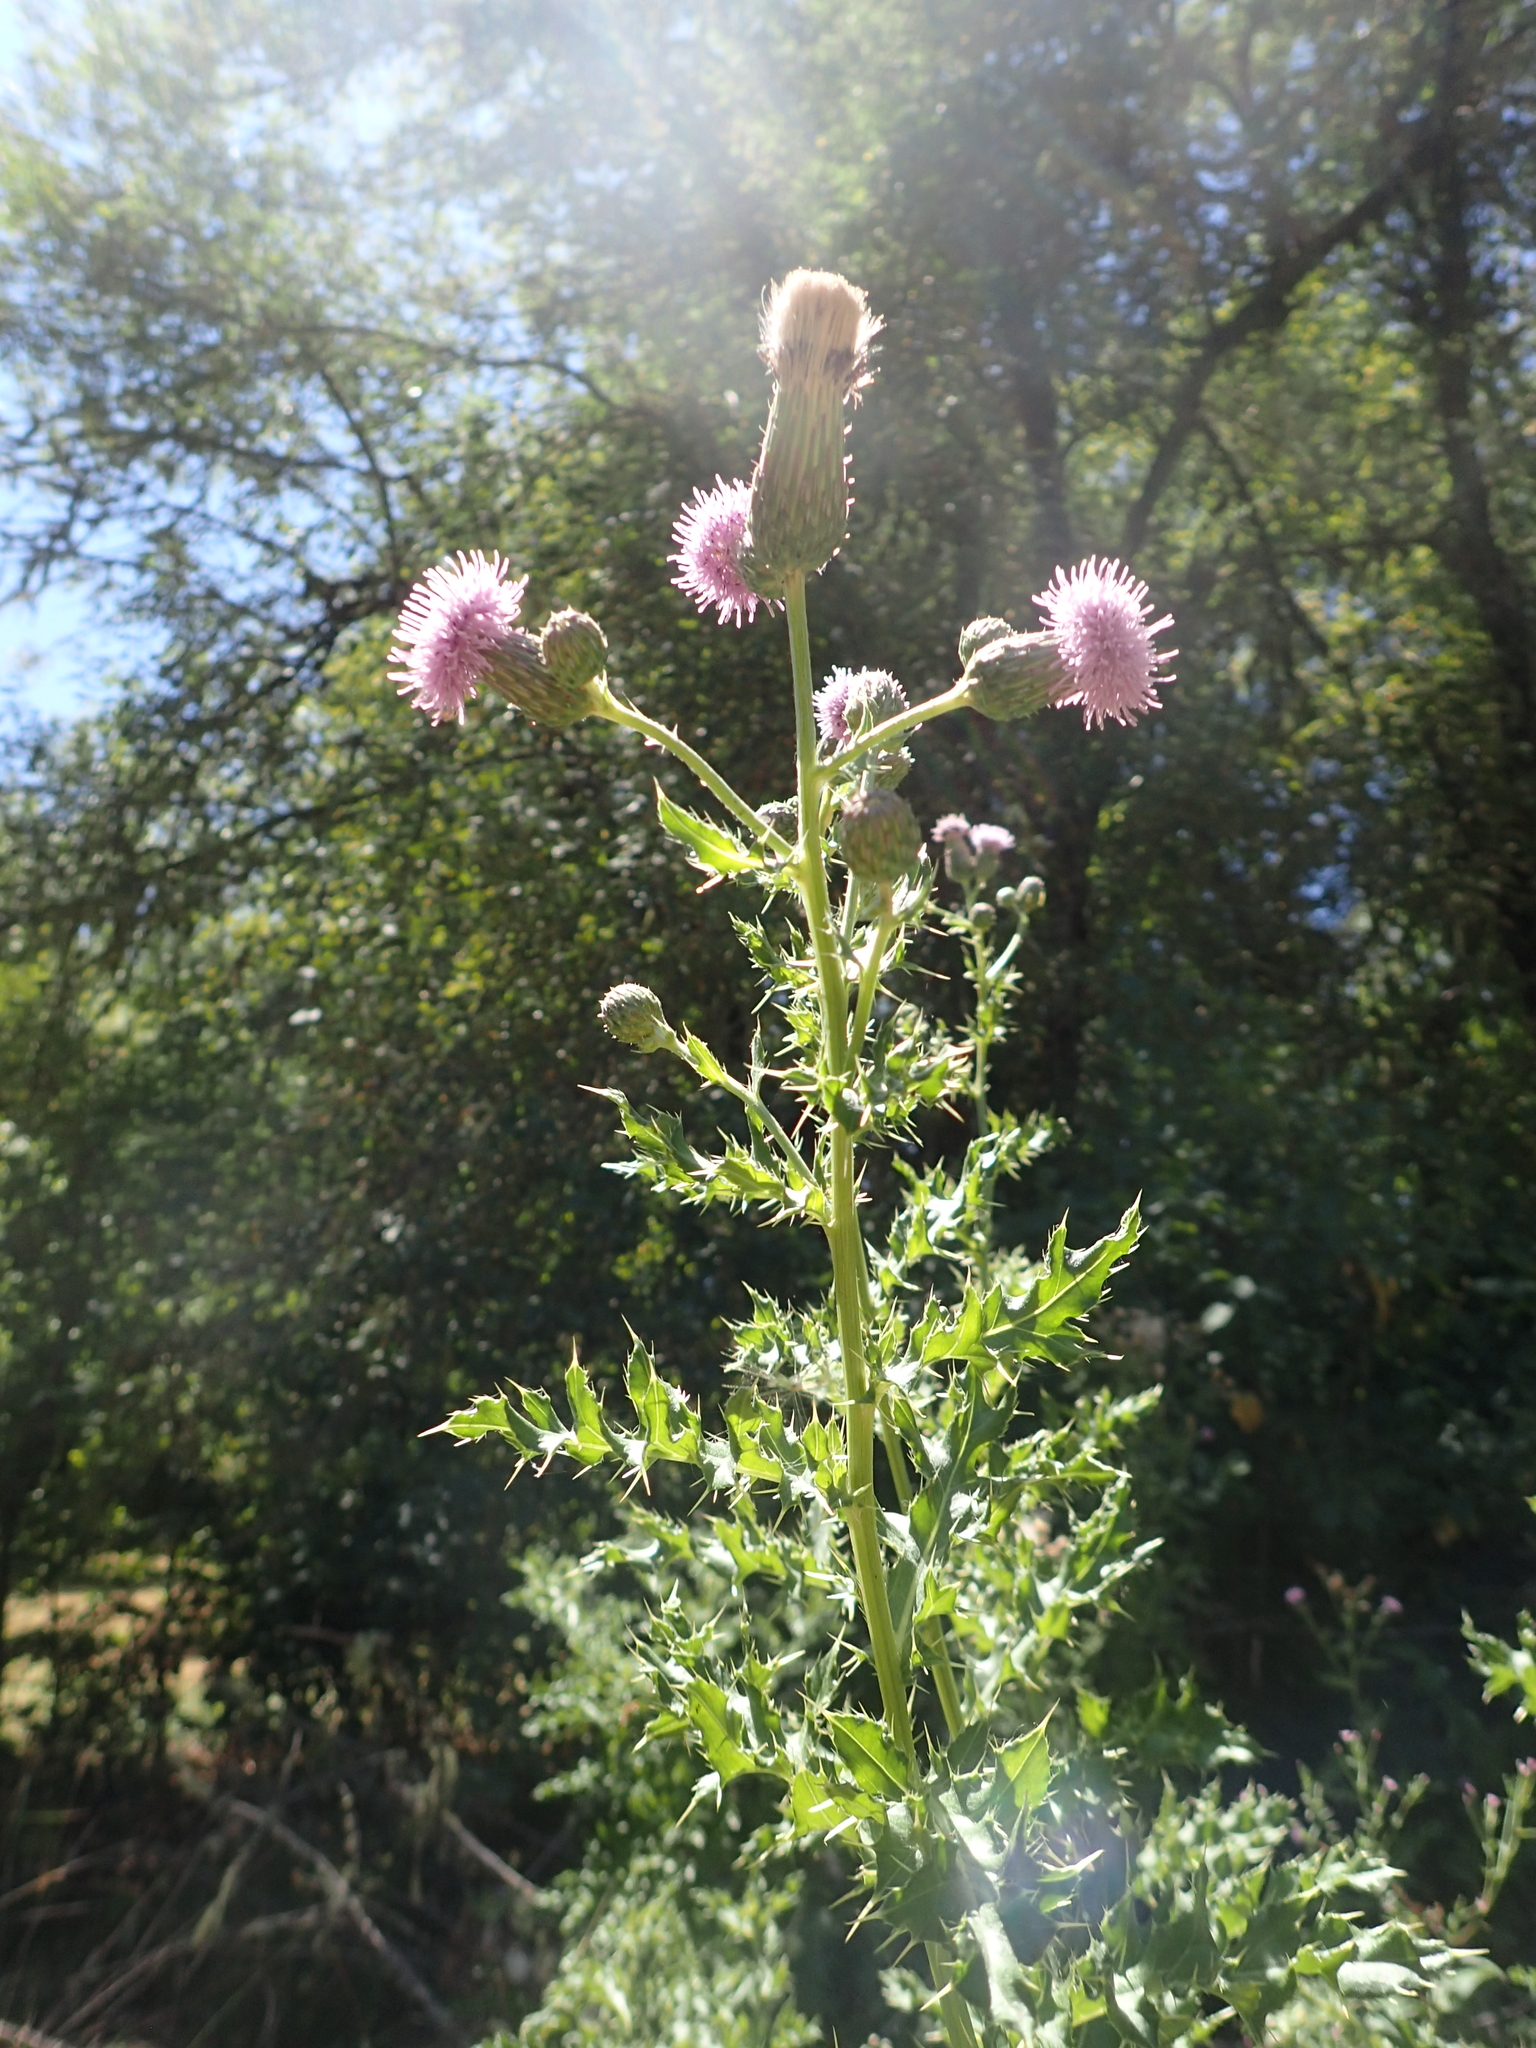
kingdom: Plantae
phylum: Tracheophyta
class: Magnoliopsida
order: Asterales
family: Asteraceae
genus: Cirsium
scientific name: Cirsium arvense
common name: Creeping thistle
